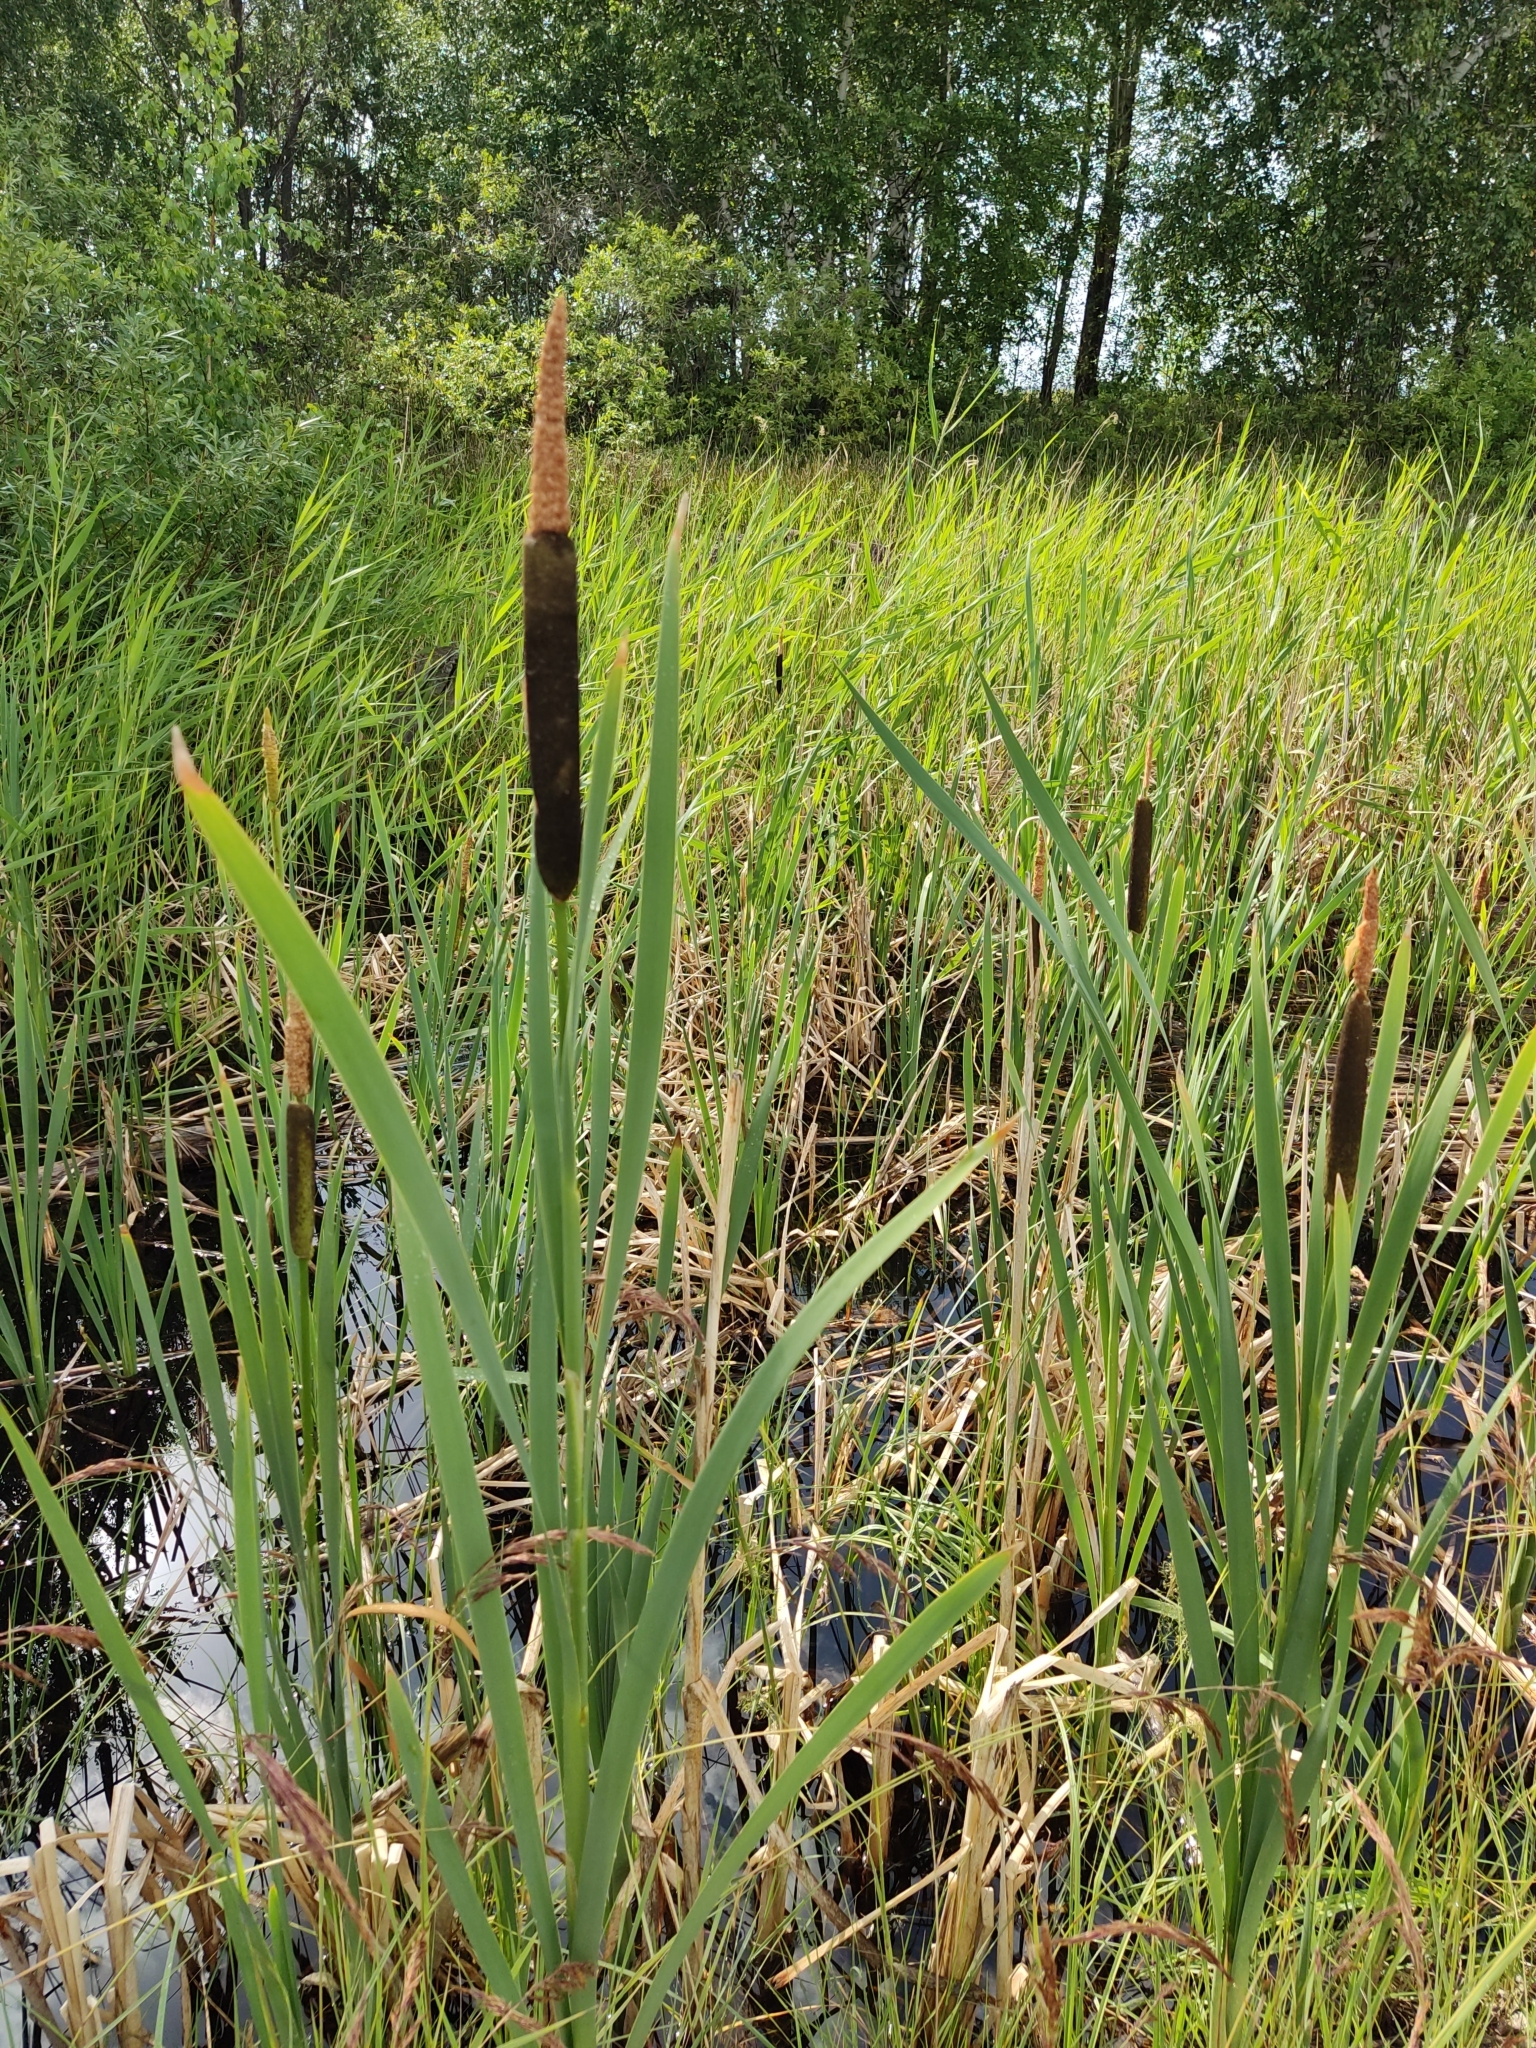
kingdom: Plantae
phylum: Tracheophyta
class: Liliopsida
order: Poales
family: Typhaceae
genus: Typha
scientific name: Typha latifolia
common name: Broadleaf cattail
